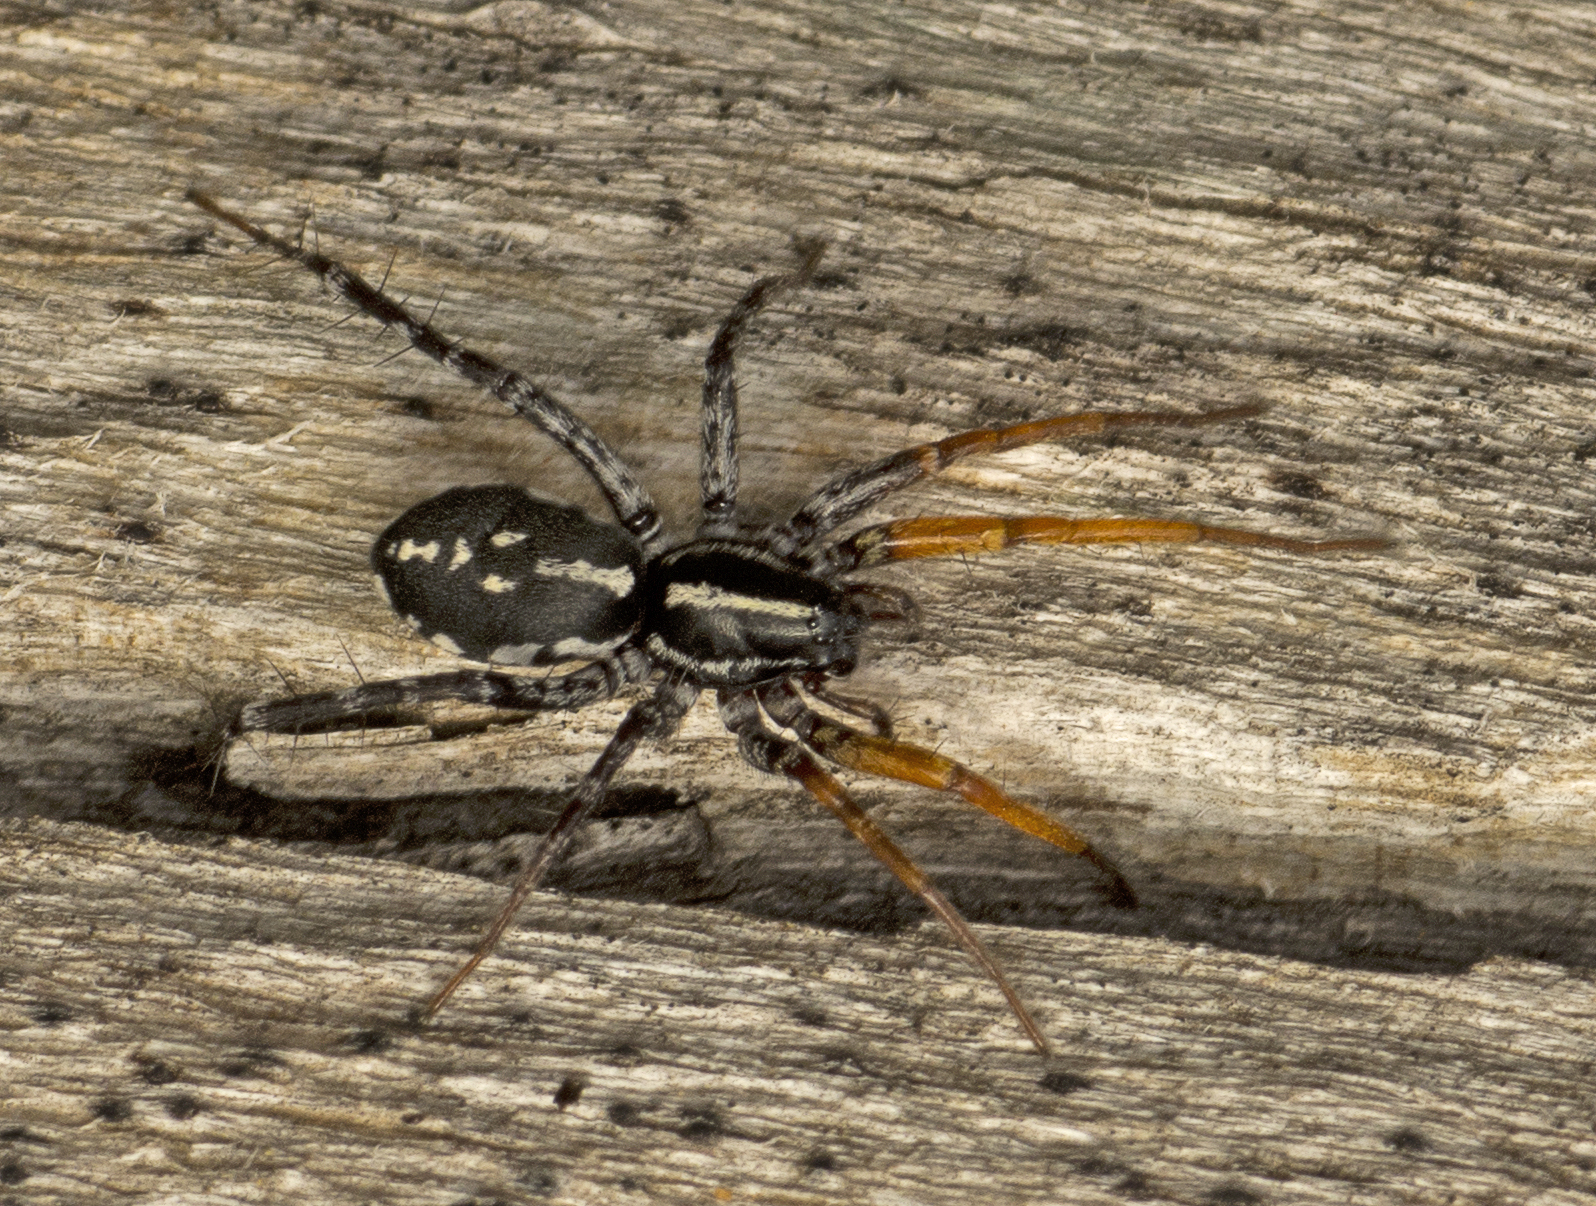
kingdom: Animalia
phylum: Arthropoda
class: Arachnida
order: Araneae
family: Corinnidae
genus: Nyssus
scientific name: Nyssus coloripes
